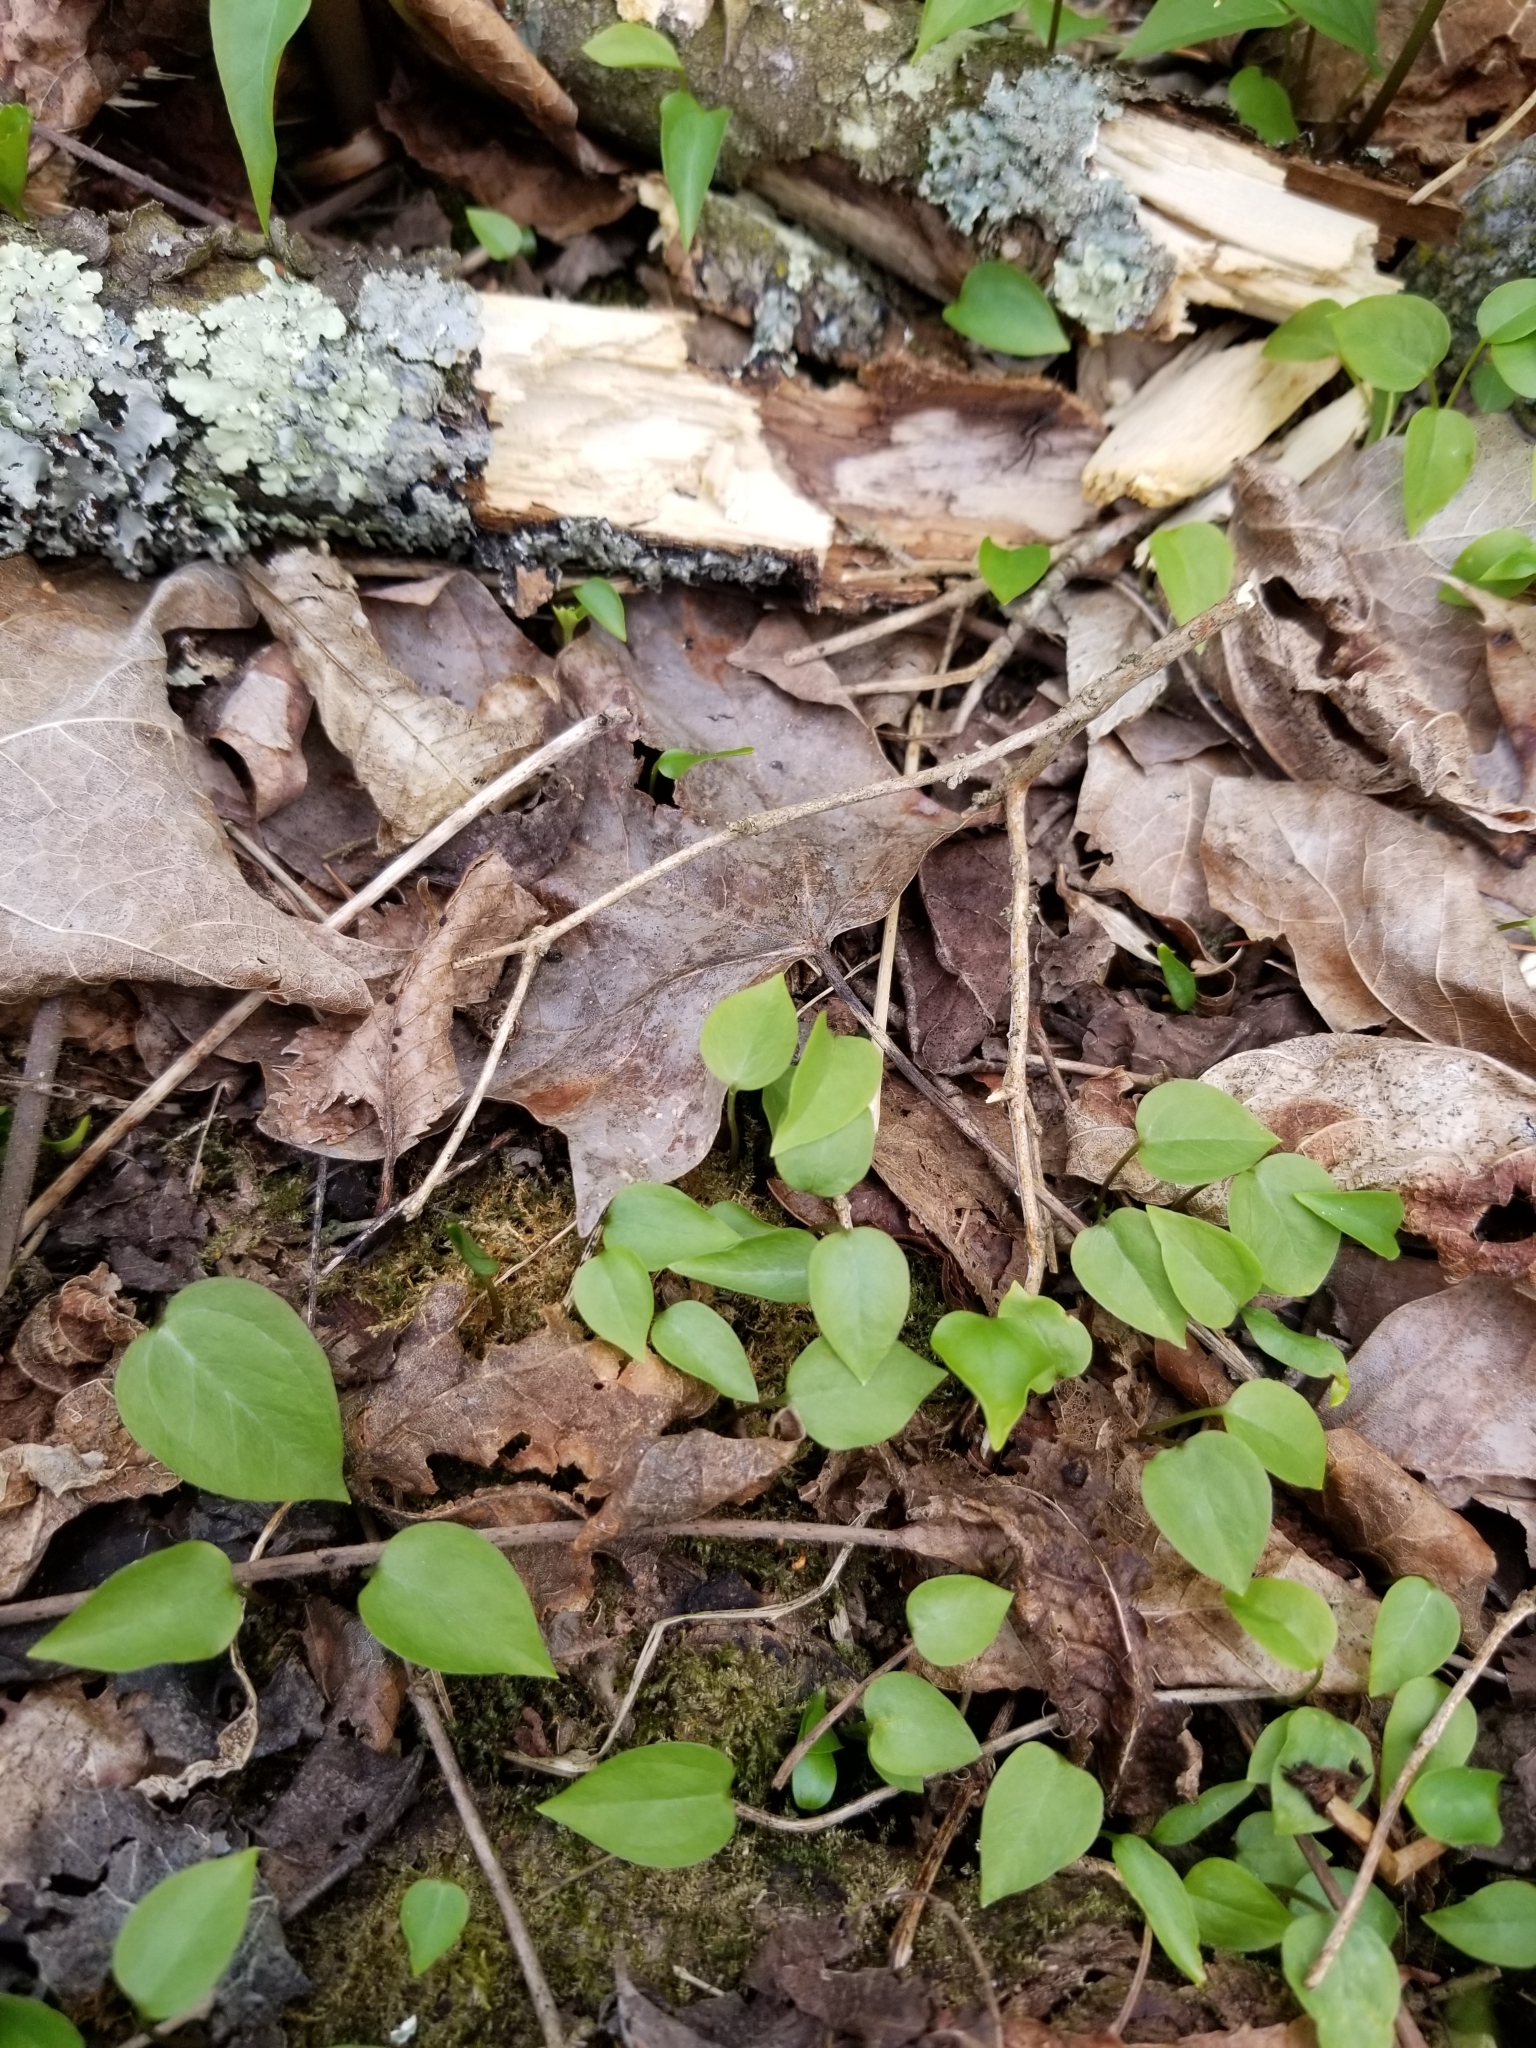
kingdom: Plantae
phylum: Tracheophyta
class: Liliopsida
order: Liliales
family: Melanthiaceae
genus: Trillium
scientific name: Trillium erectum
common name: Purple trillium
